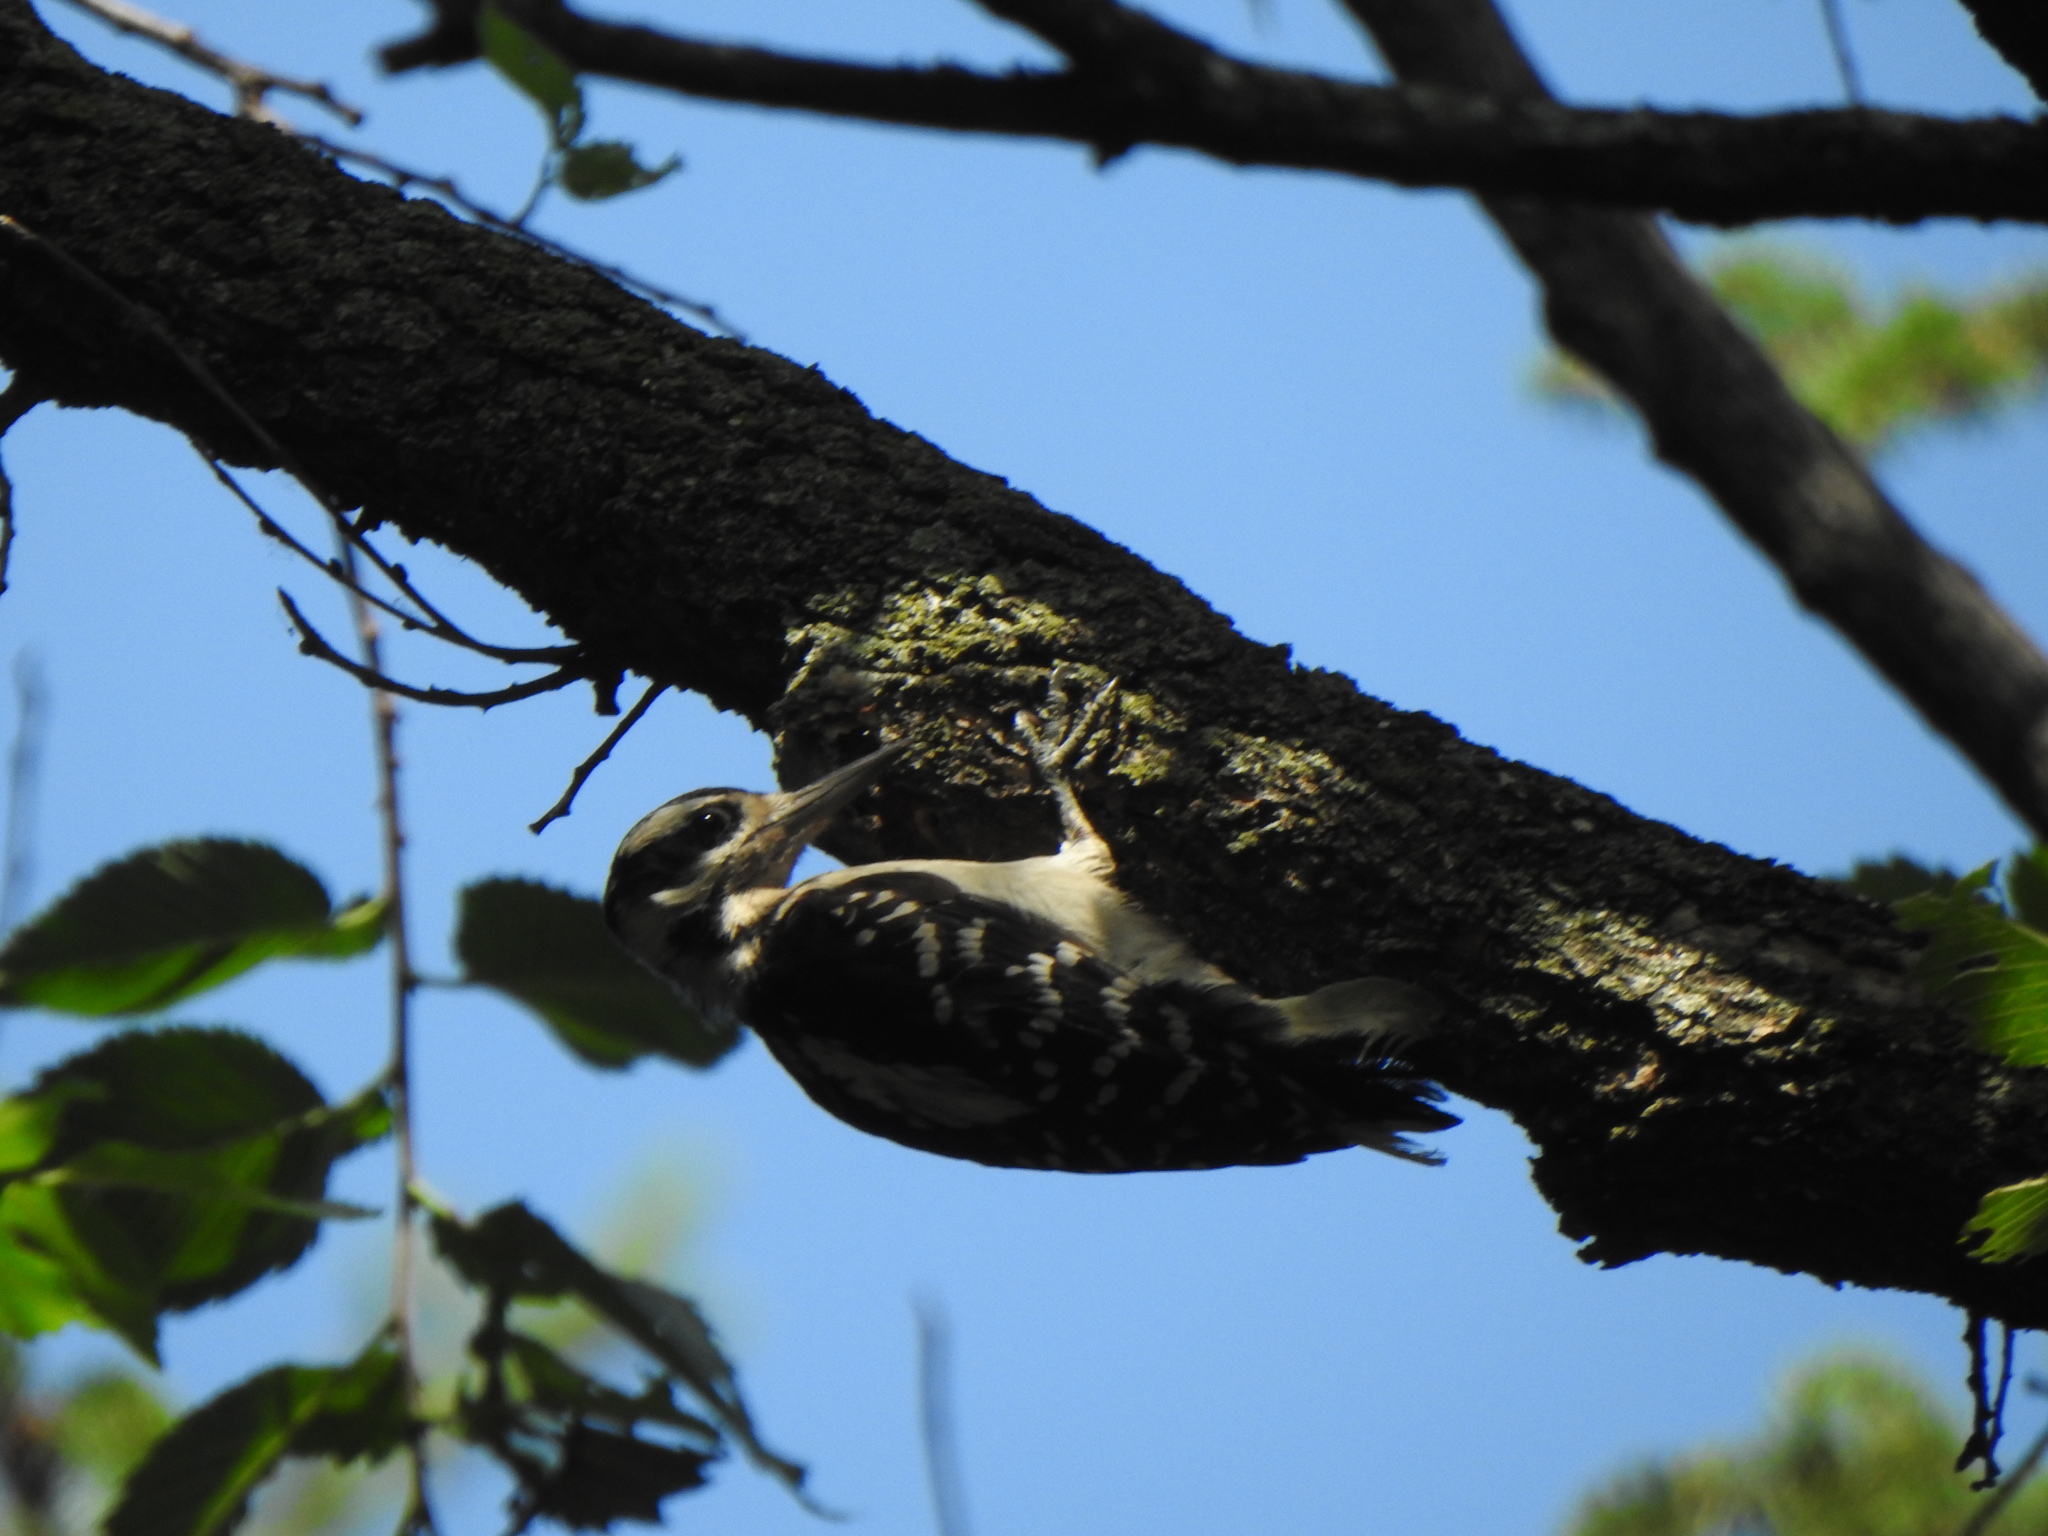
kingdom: Animalia
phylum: Chordata
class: Aves
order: Piciformes
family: Picidae
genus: Leuconotopicus
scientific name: Leuconotopicus villosus
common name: Hairy woodpecker
